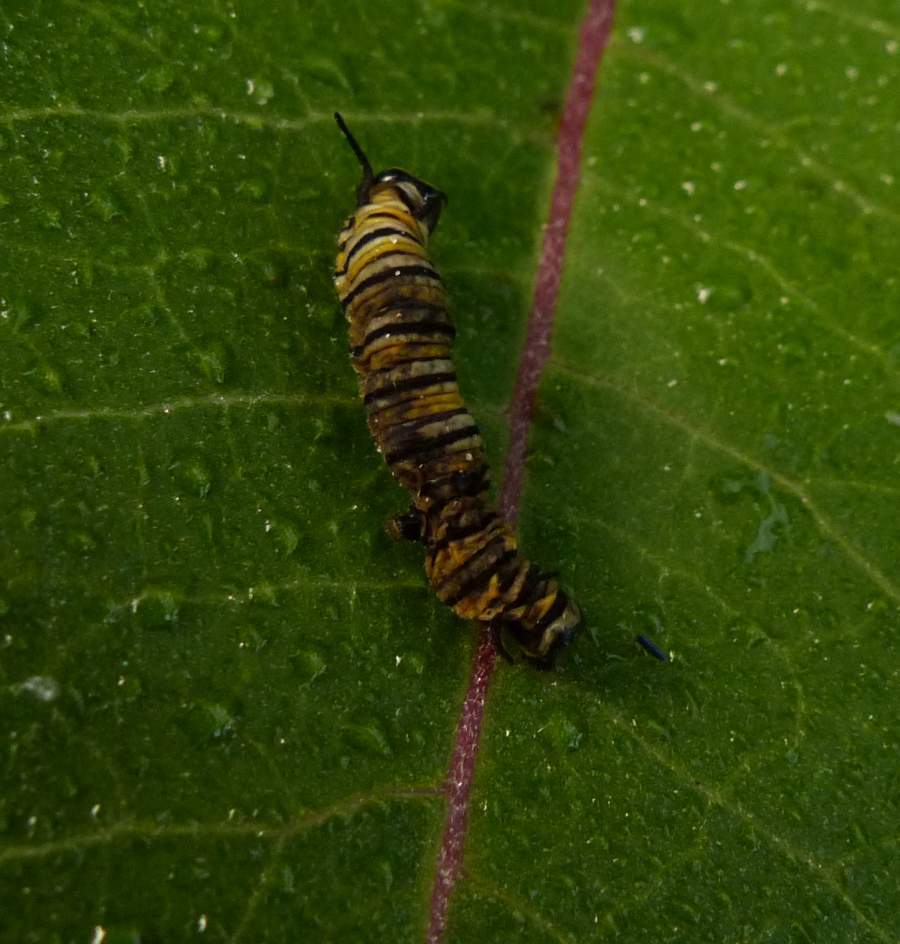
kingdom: Animalia
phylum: Arthropoda
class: Insecta
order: Lepidoptera
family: Nymphalidae
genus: Danaus
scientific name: Danaus plexippus
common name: Monarch
